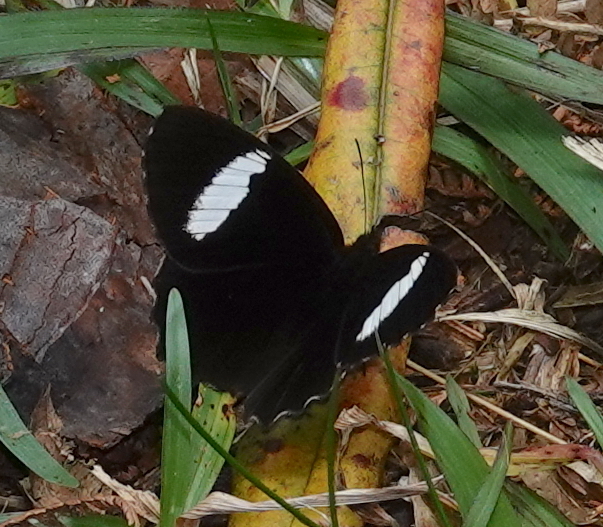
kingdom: Animalia
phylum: Arthropoda
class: Insecta
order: Lepidoptera
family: Nymphalidae
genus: Pedaliodes
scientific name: Pedaliodes peucestas
